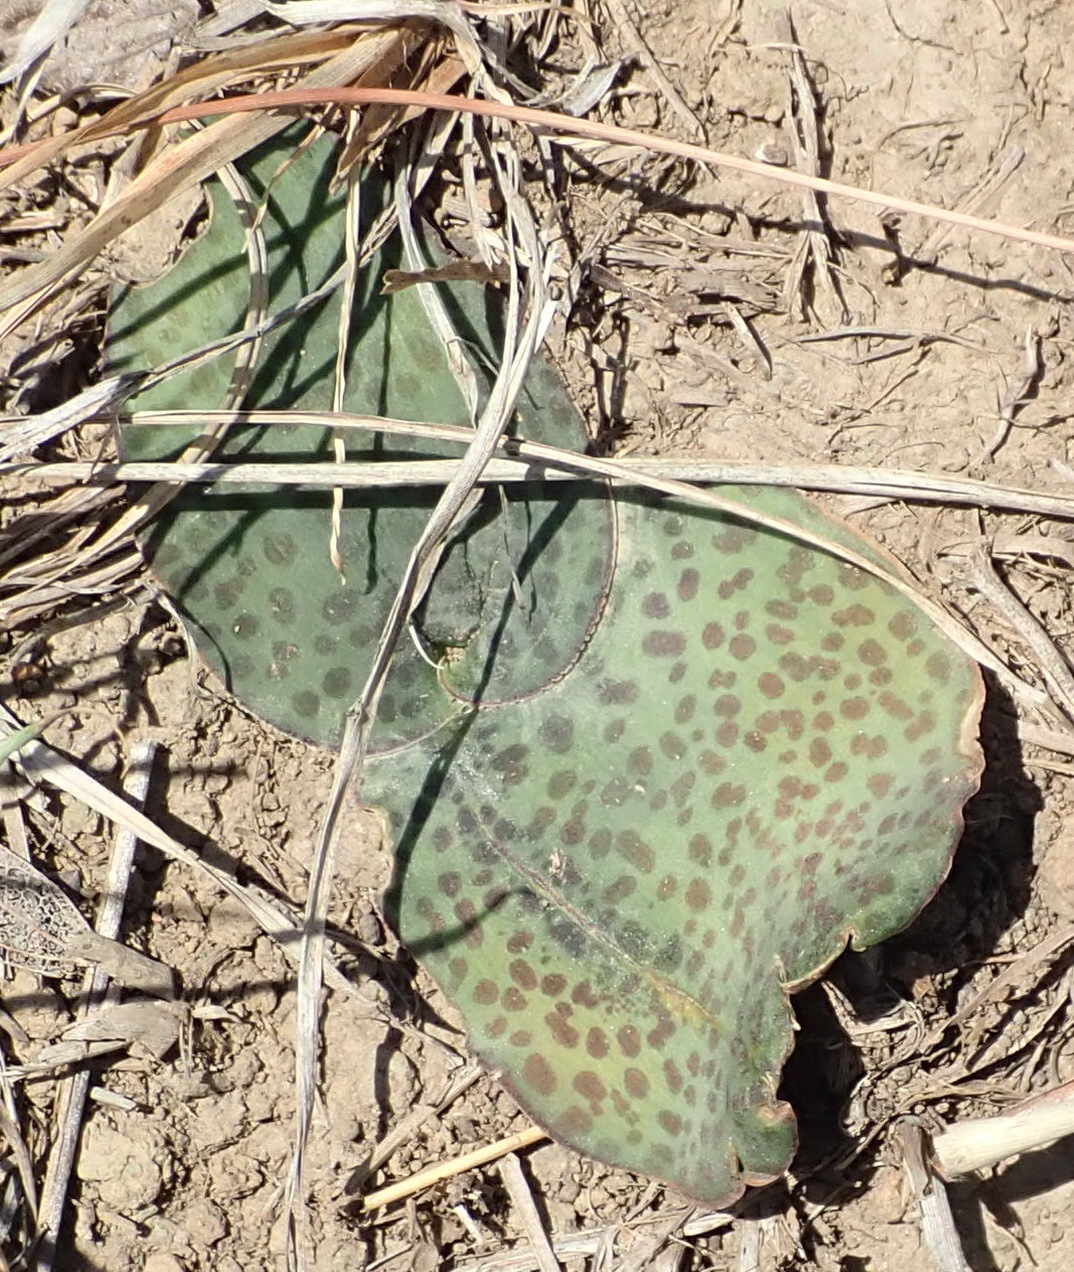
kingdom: Plantae
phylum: Tracheophyta
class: Liliopsida
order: Asparagales
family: Asparagaceae
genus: Ledebouria
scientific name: Ledebouria ovatifolia
